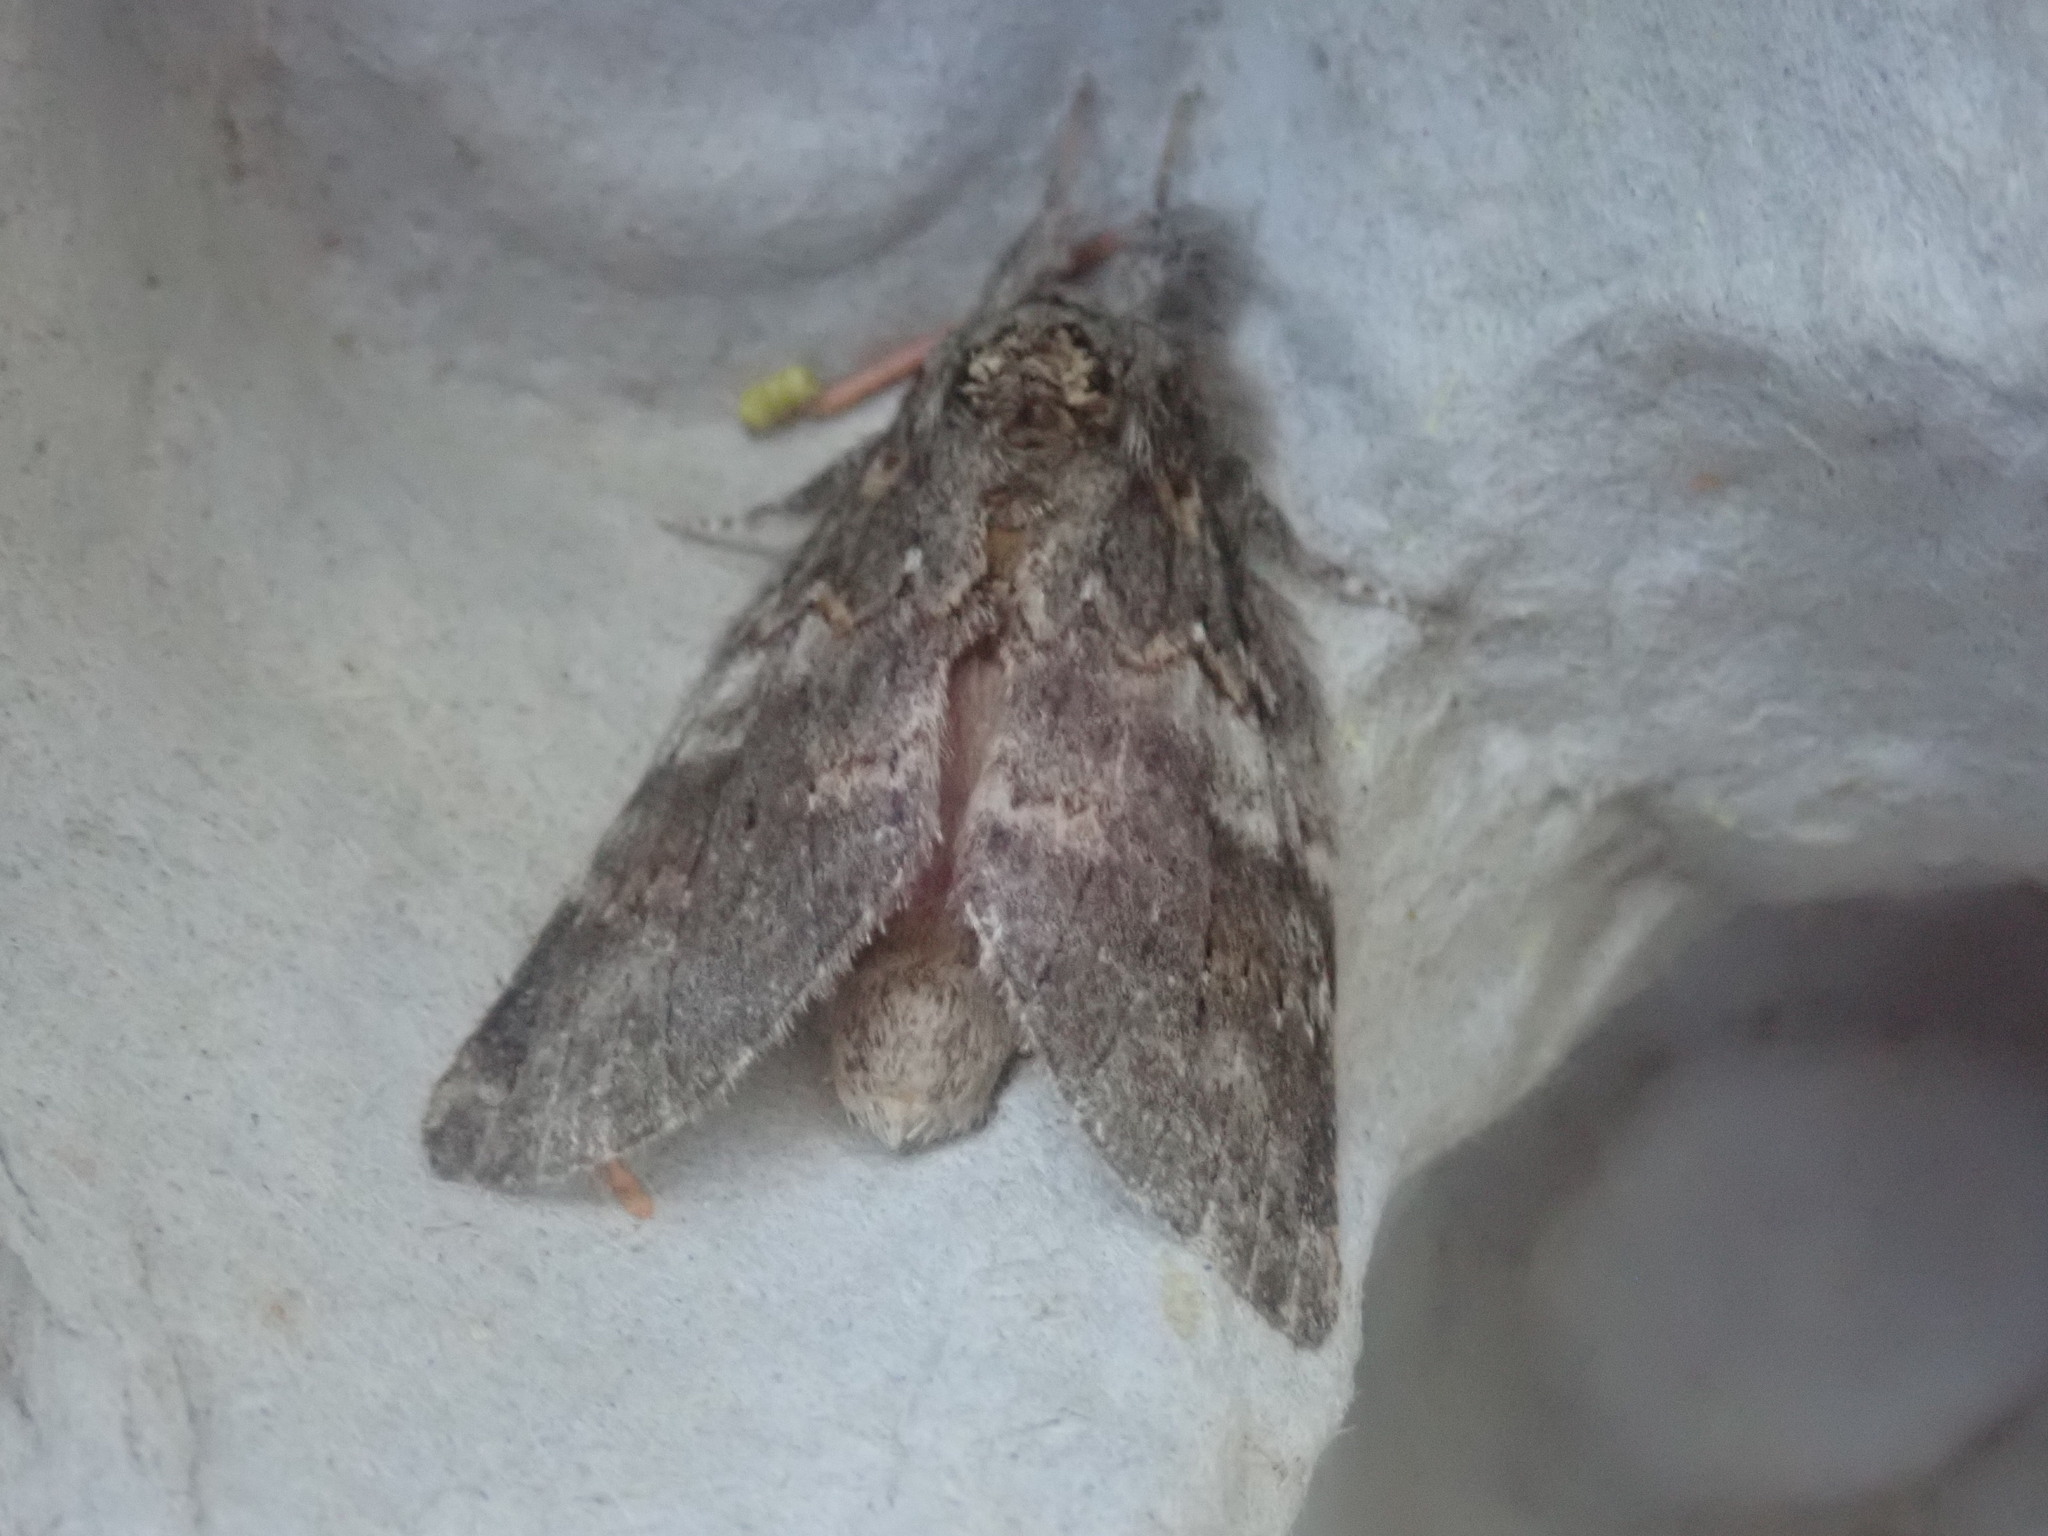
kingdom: Animalia
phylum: Arthropoda
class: Insecta
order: Lepidoptera
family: Notodontidae
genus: Peridea
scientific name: Peridea angulosa
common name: Angulose prominent
